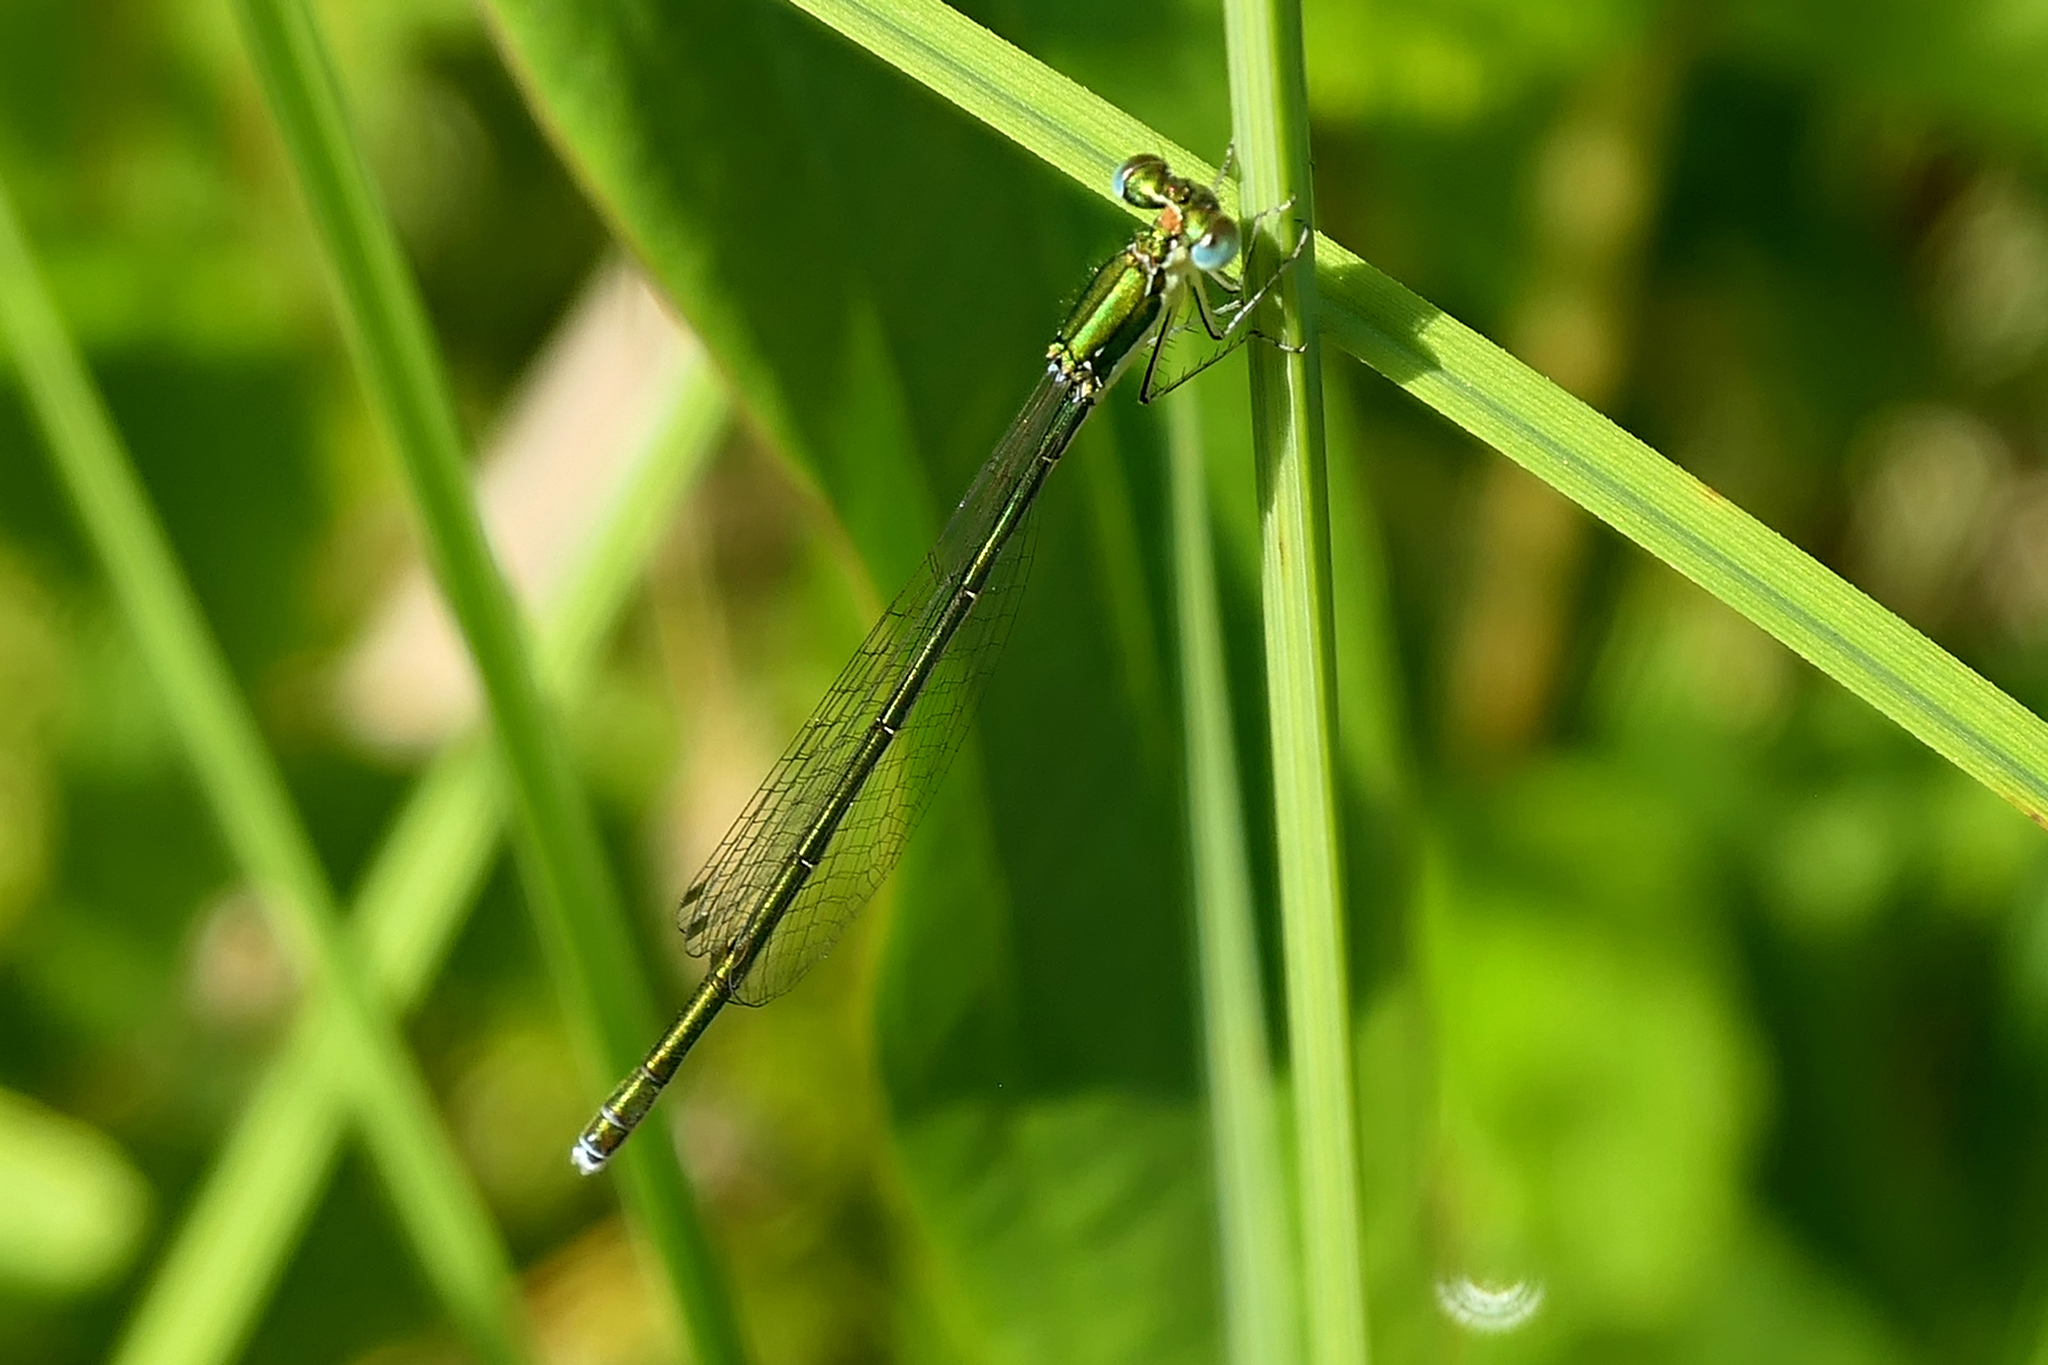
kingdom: Animalia
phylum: Arthropoda
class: Insecta
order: Odonata
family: Coenagrionidae
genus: Nehalennia
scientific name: Nehalennia irene
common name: Sedge sprite
